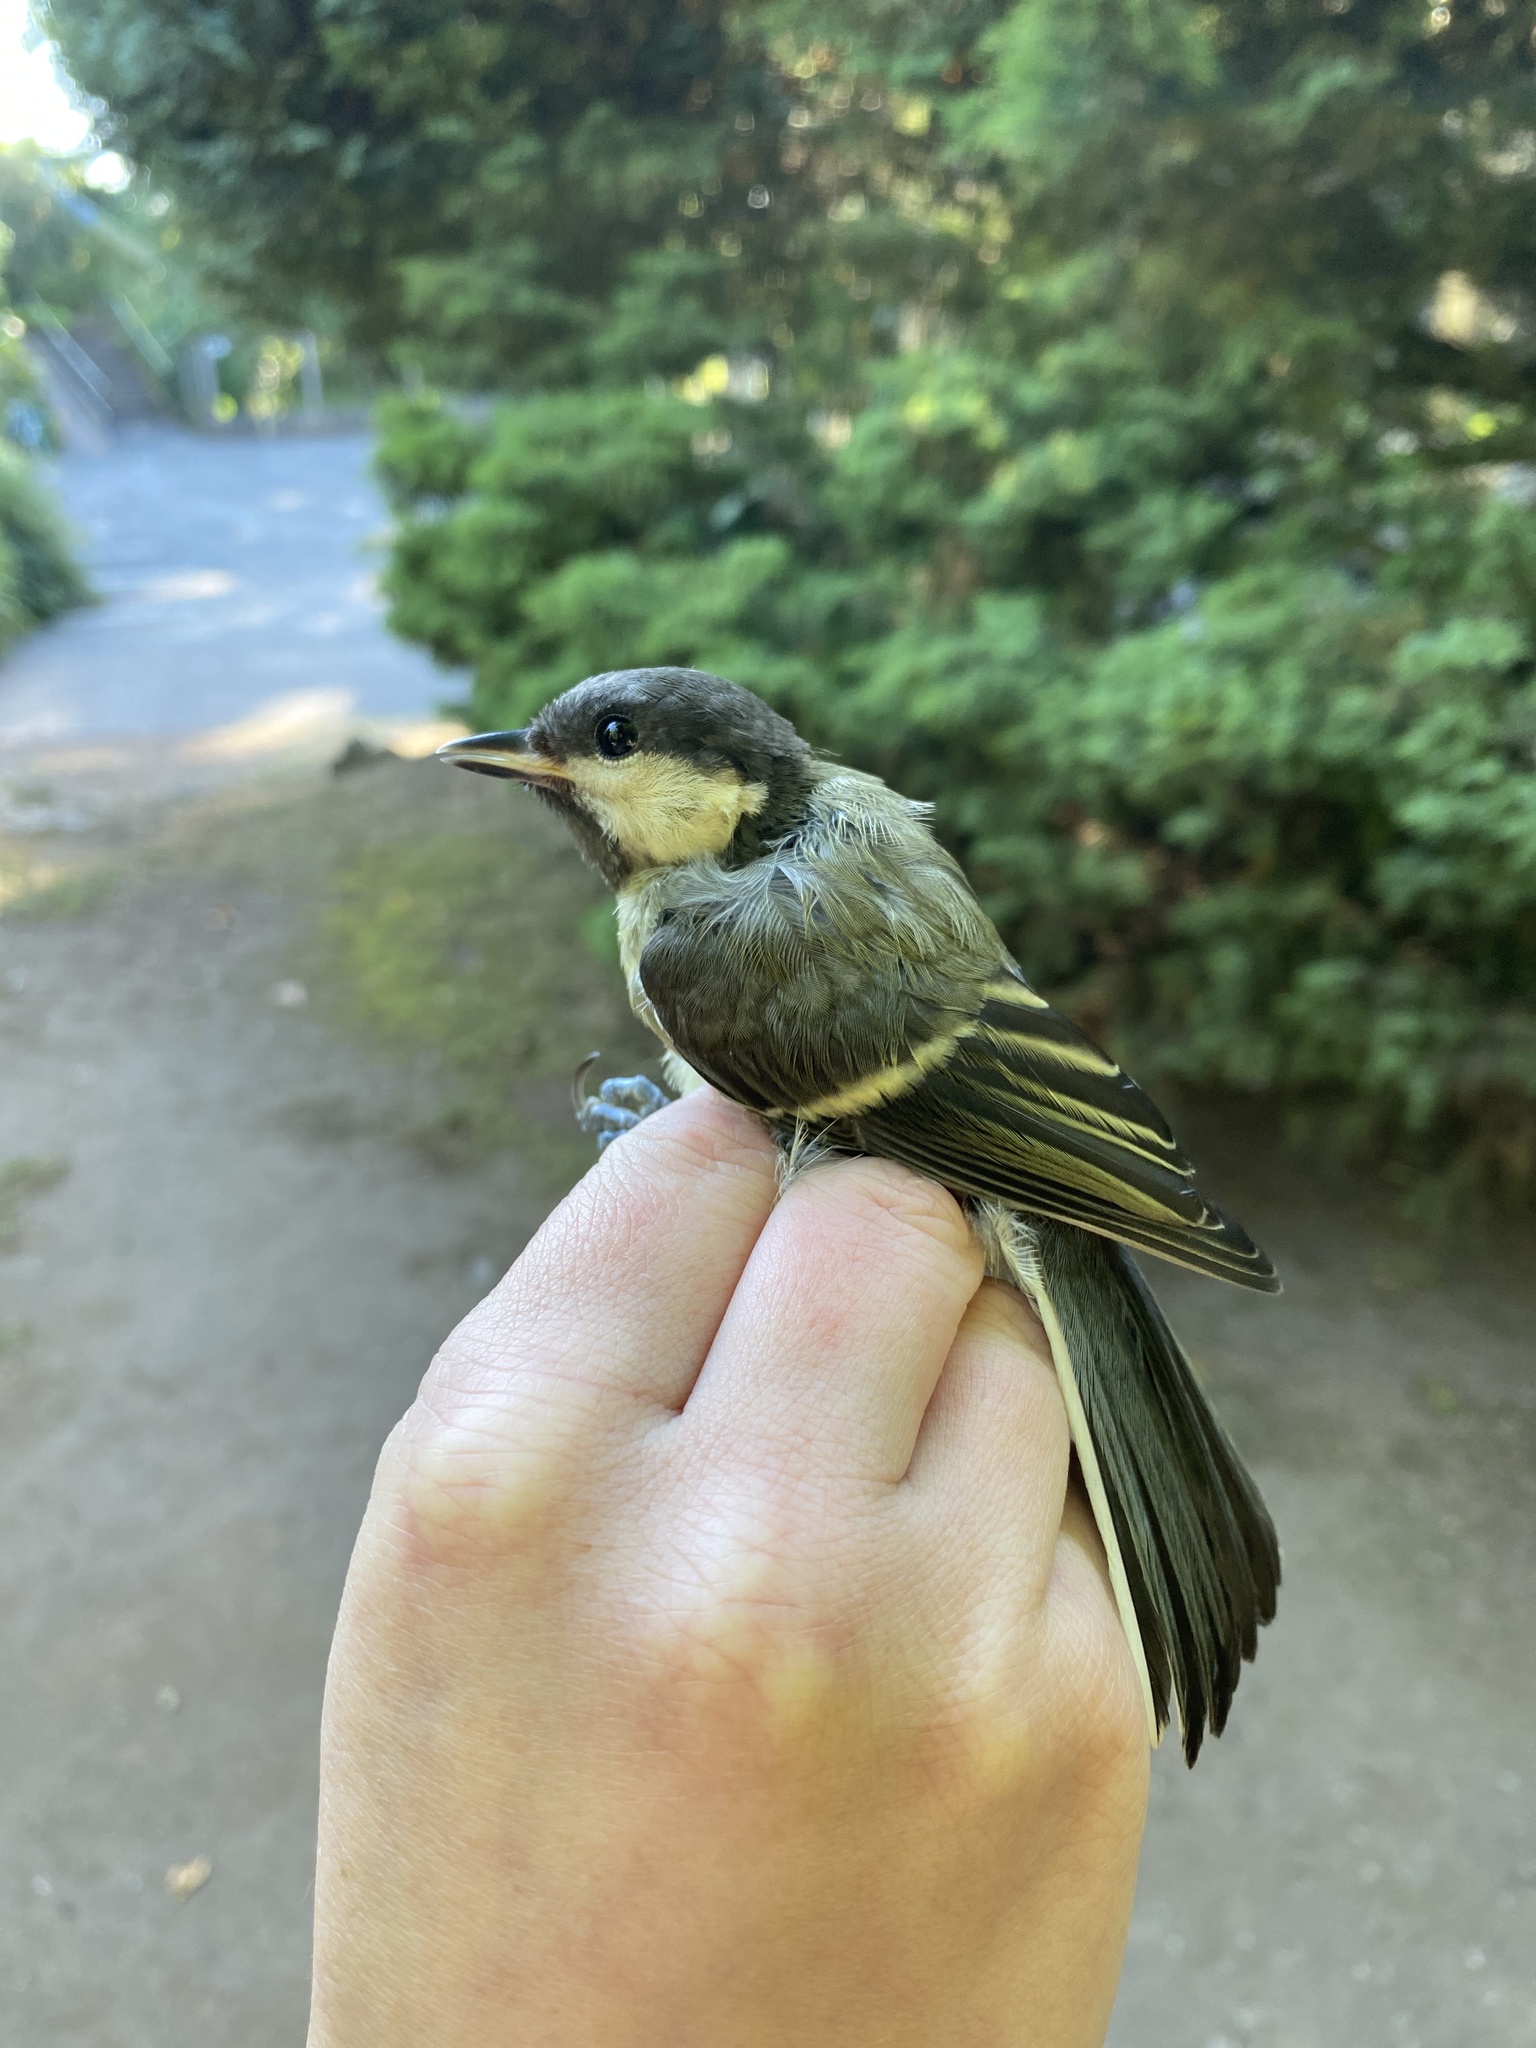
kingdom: Animalia
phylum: Chordata
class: Aves
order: Passeriformes
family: Paridae
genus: Parus
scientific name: Parus major
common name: Great tit
